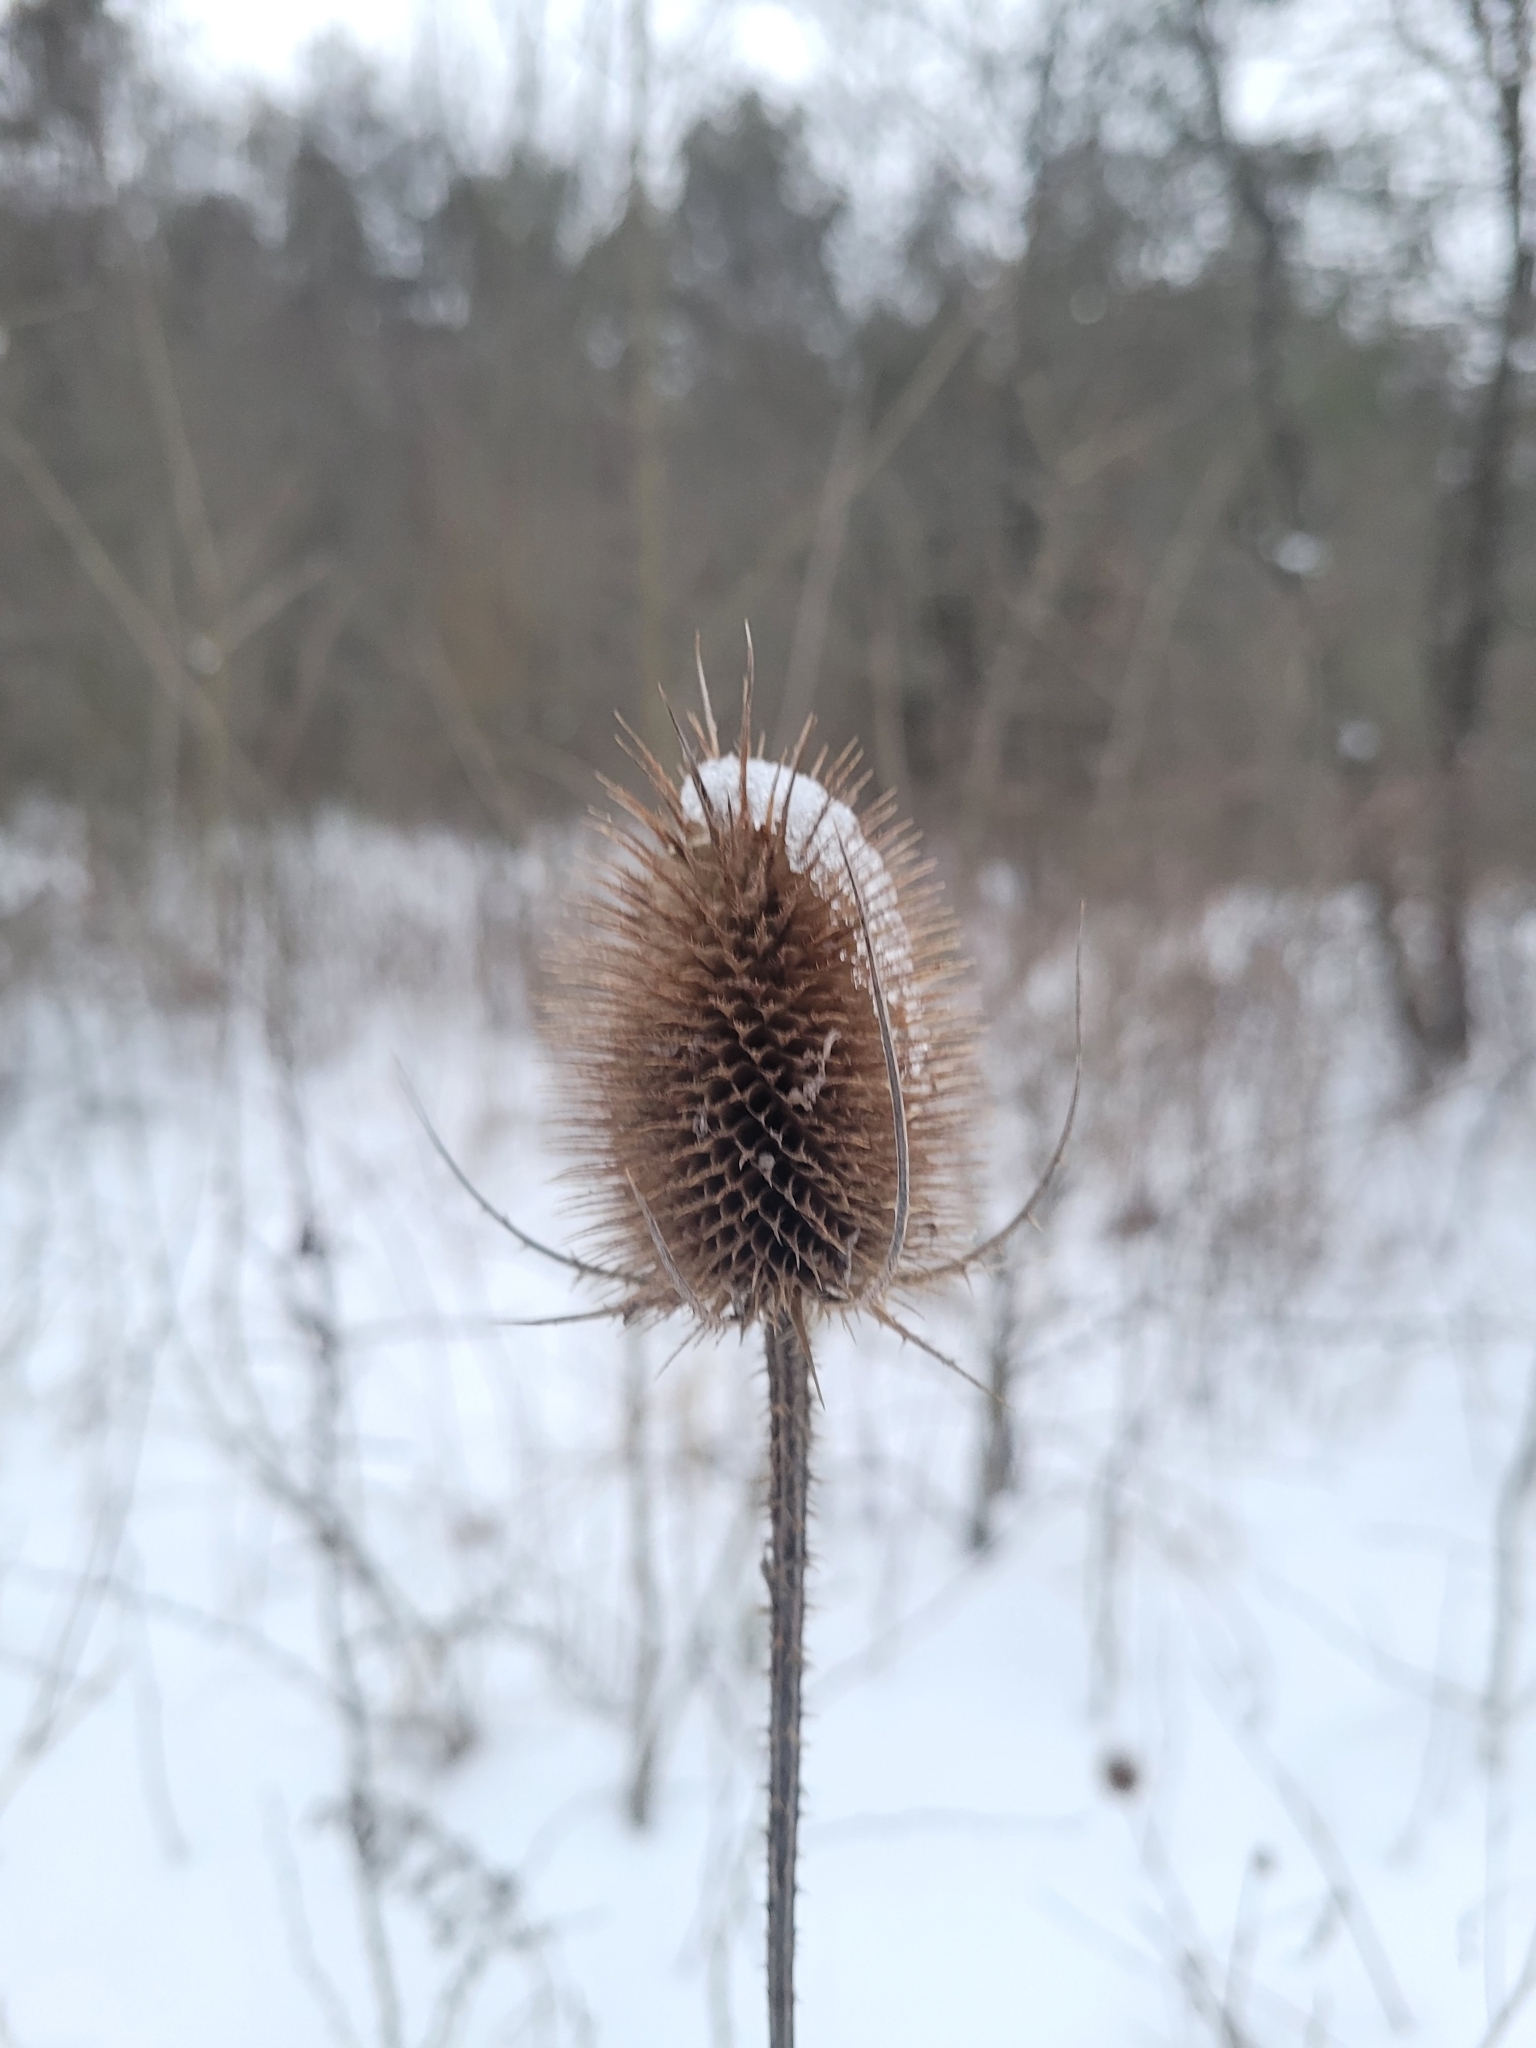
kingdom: Plantae
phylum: Tracheophyta
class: Magnoliopsida
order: Dipsacales
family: Caprifoliaceae
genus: Dipsacus
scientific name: Dipsacus fullonum
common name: Teasel
